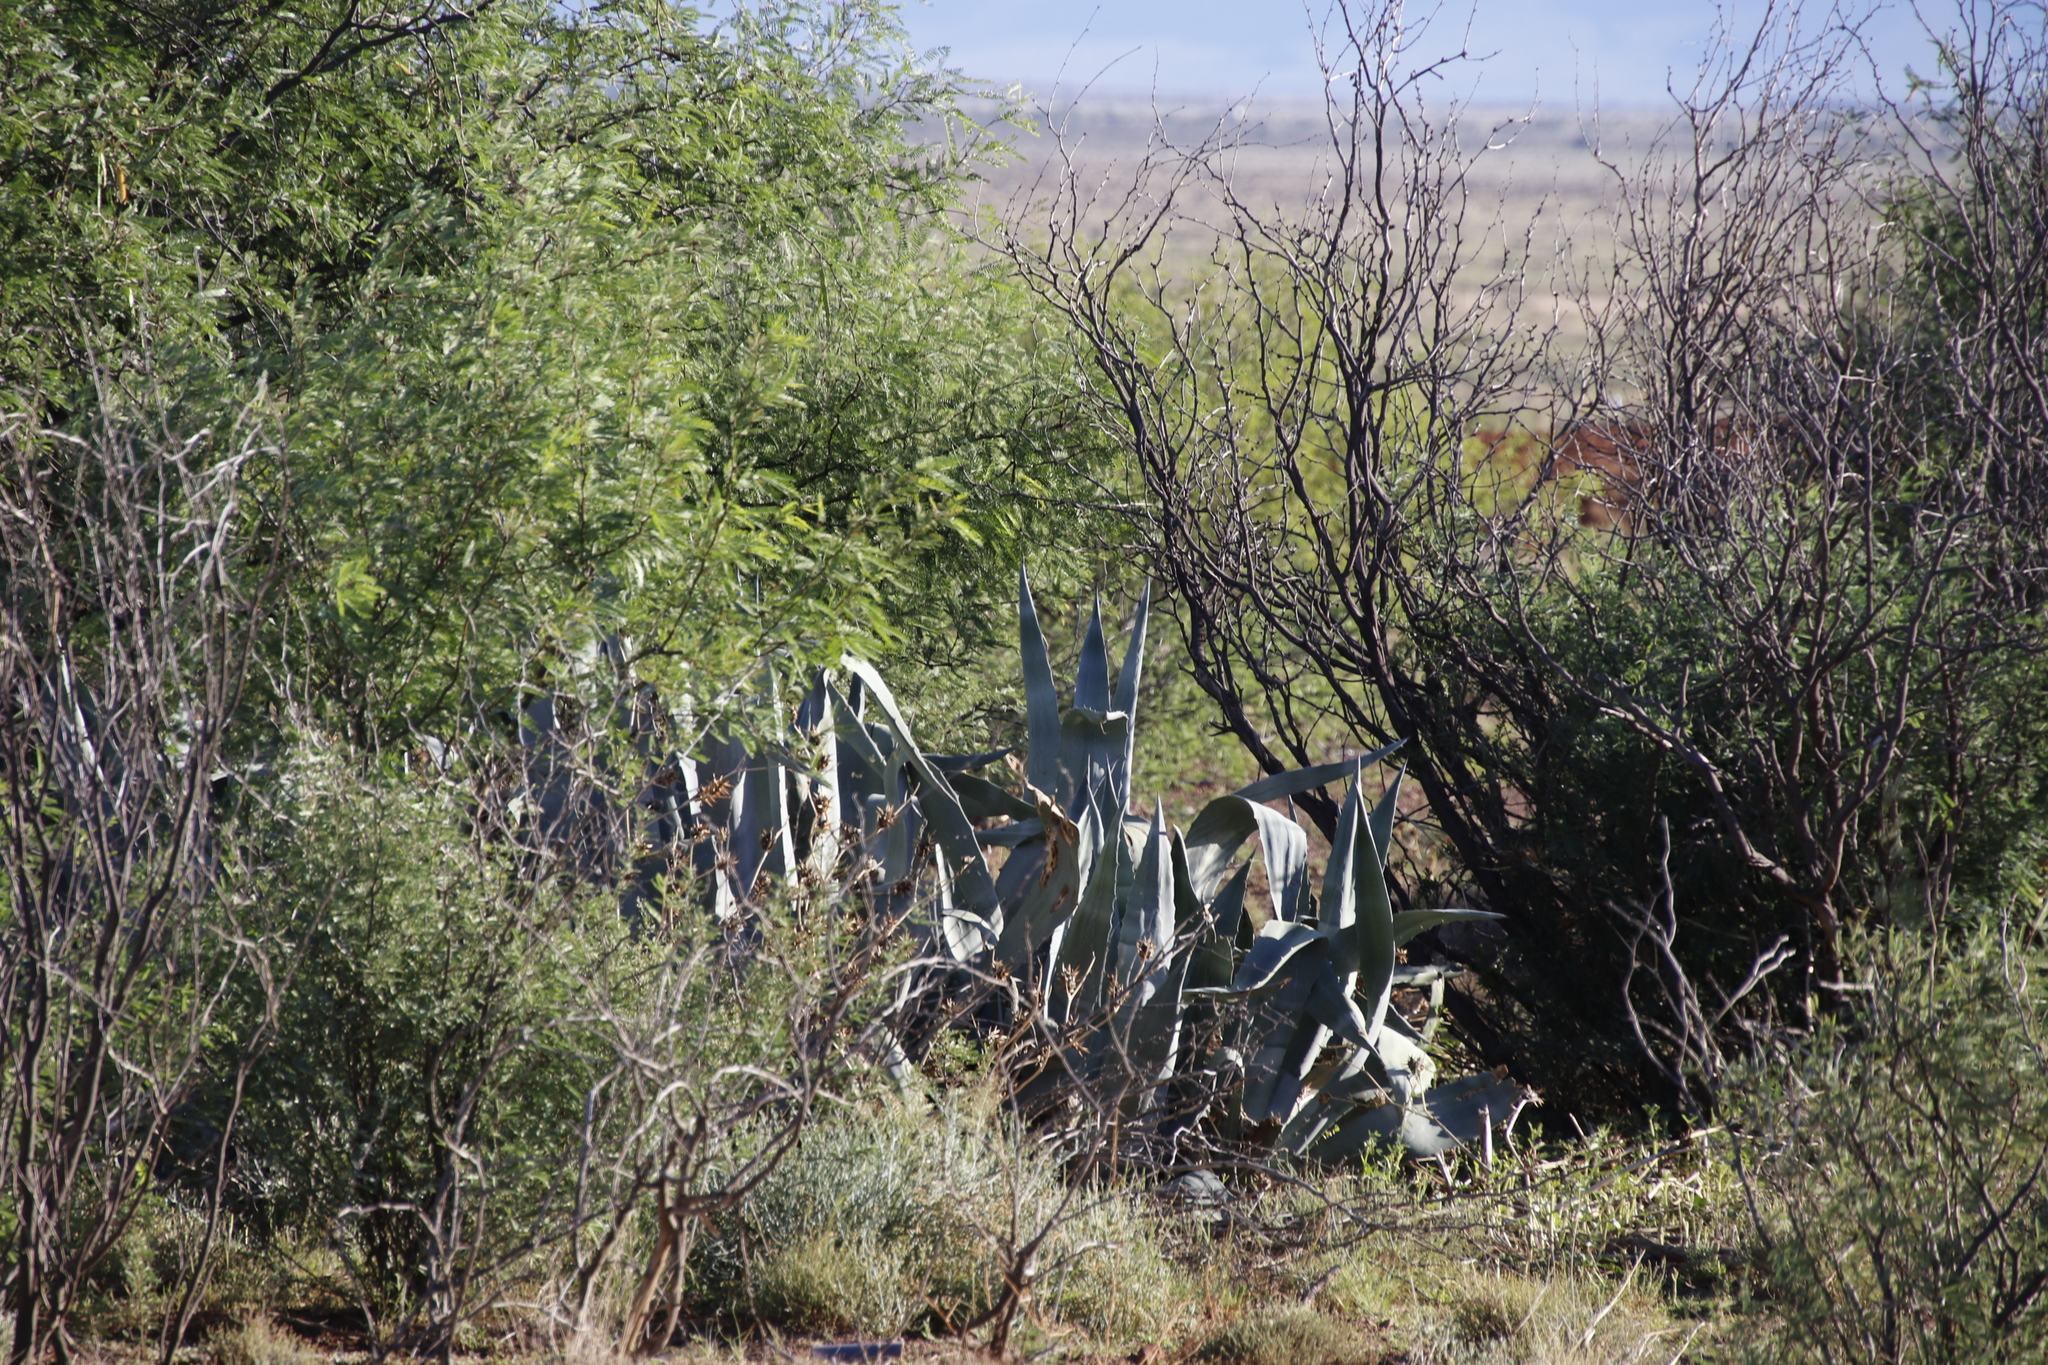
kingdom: Plantae
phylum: Tracheophyta
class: Liliopsida
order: Asparagales
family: Asparagaceae
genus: Agave
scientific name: Agave americana
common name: Centuryplant
